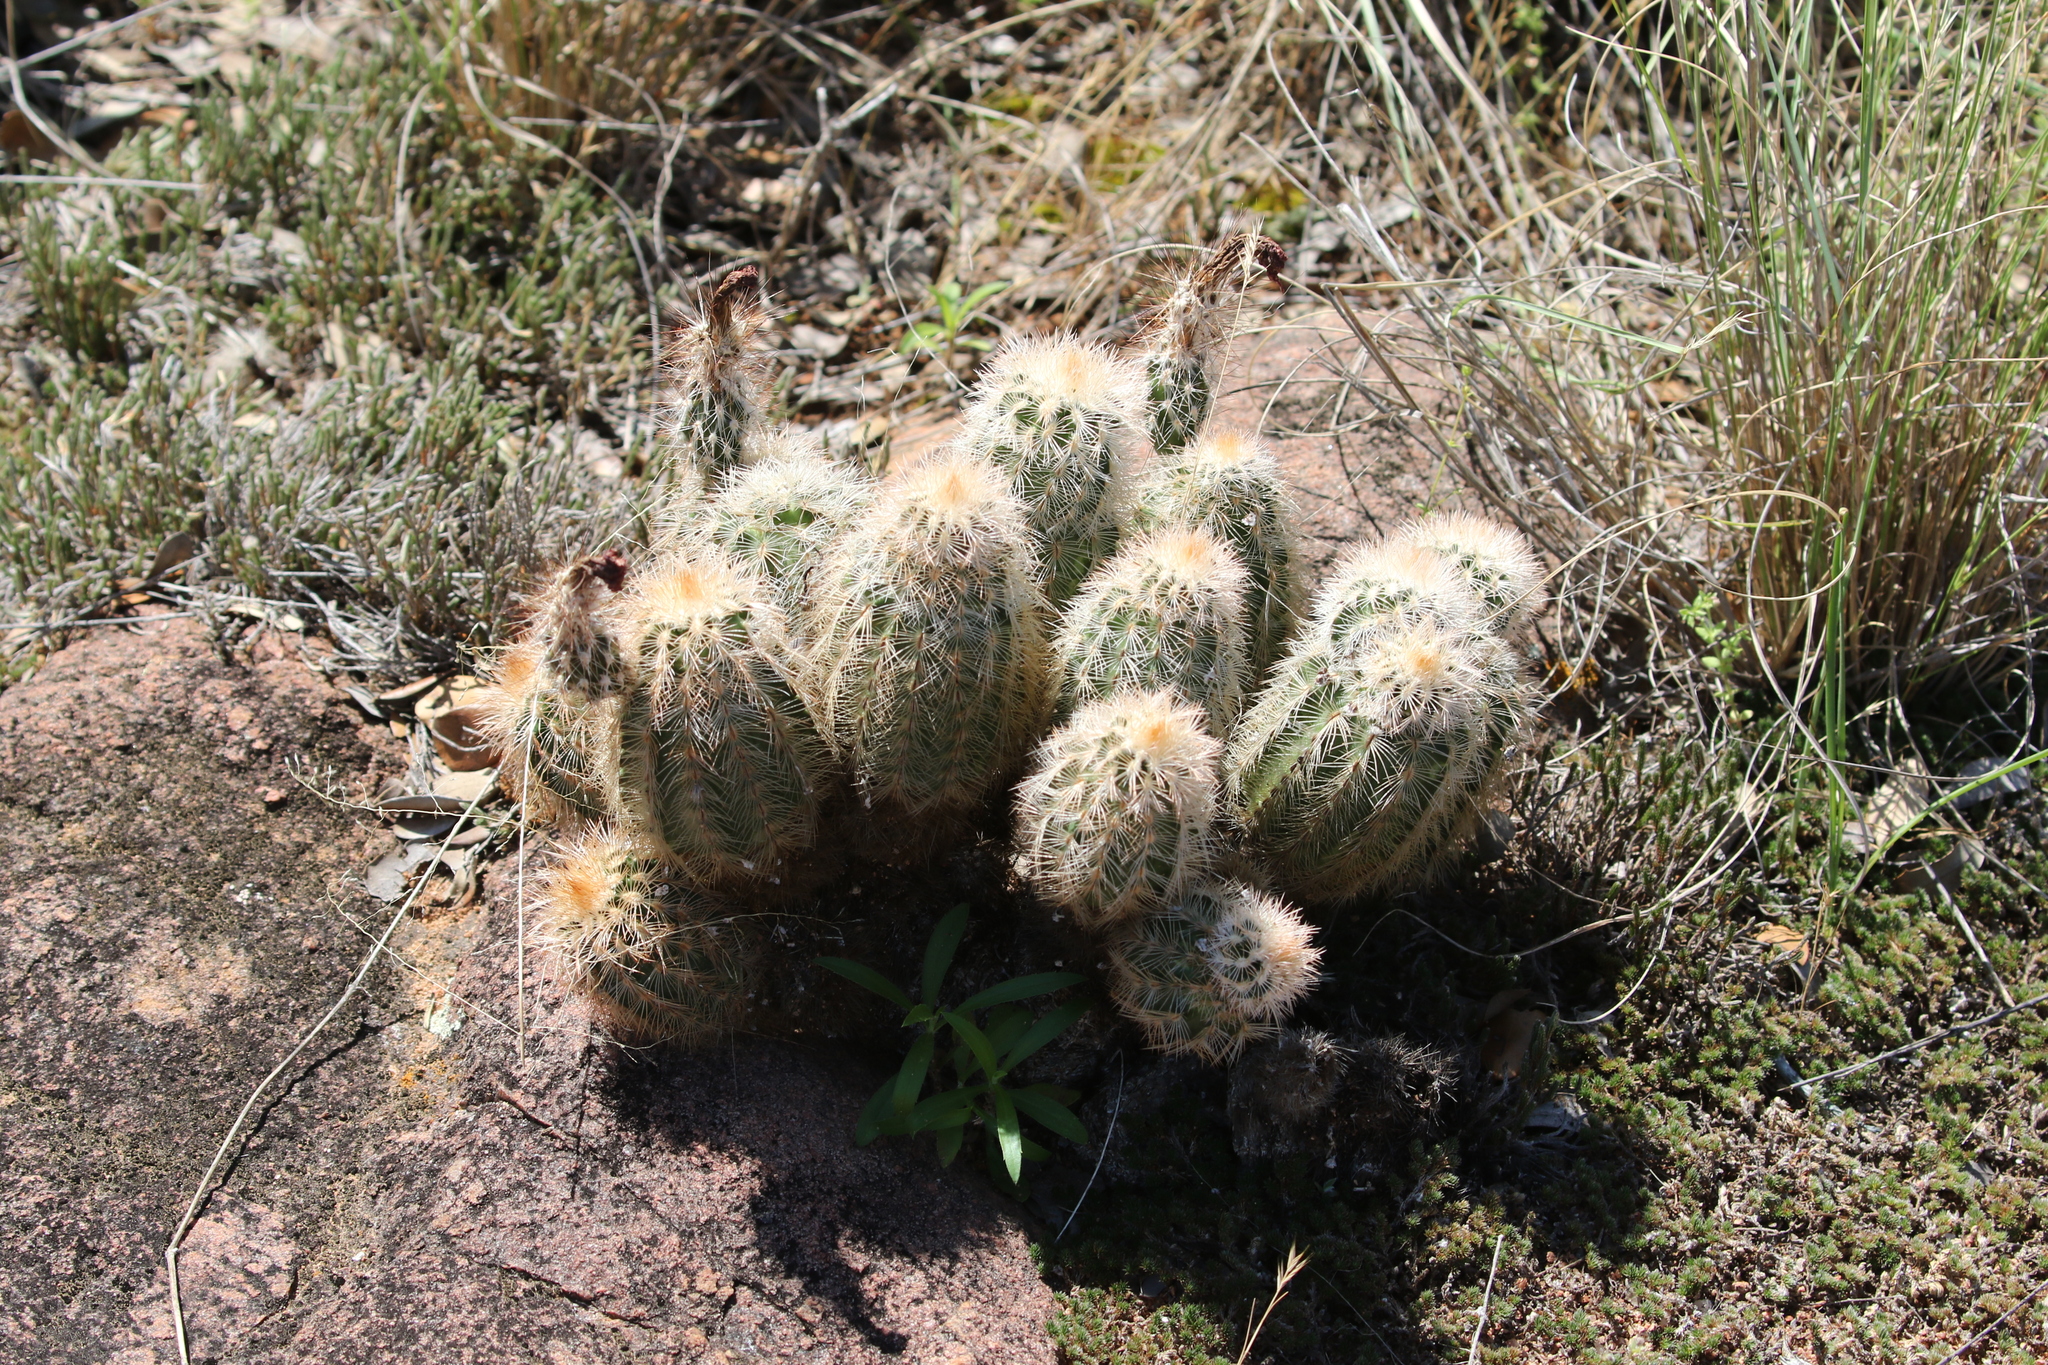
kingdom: Plantae
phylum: Tracheophyta
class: Magnoliopsida
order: Caryophyllales
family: Cactaceae
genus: Echinocereus
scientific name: Echinocereus reichenbachii
